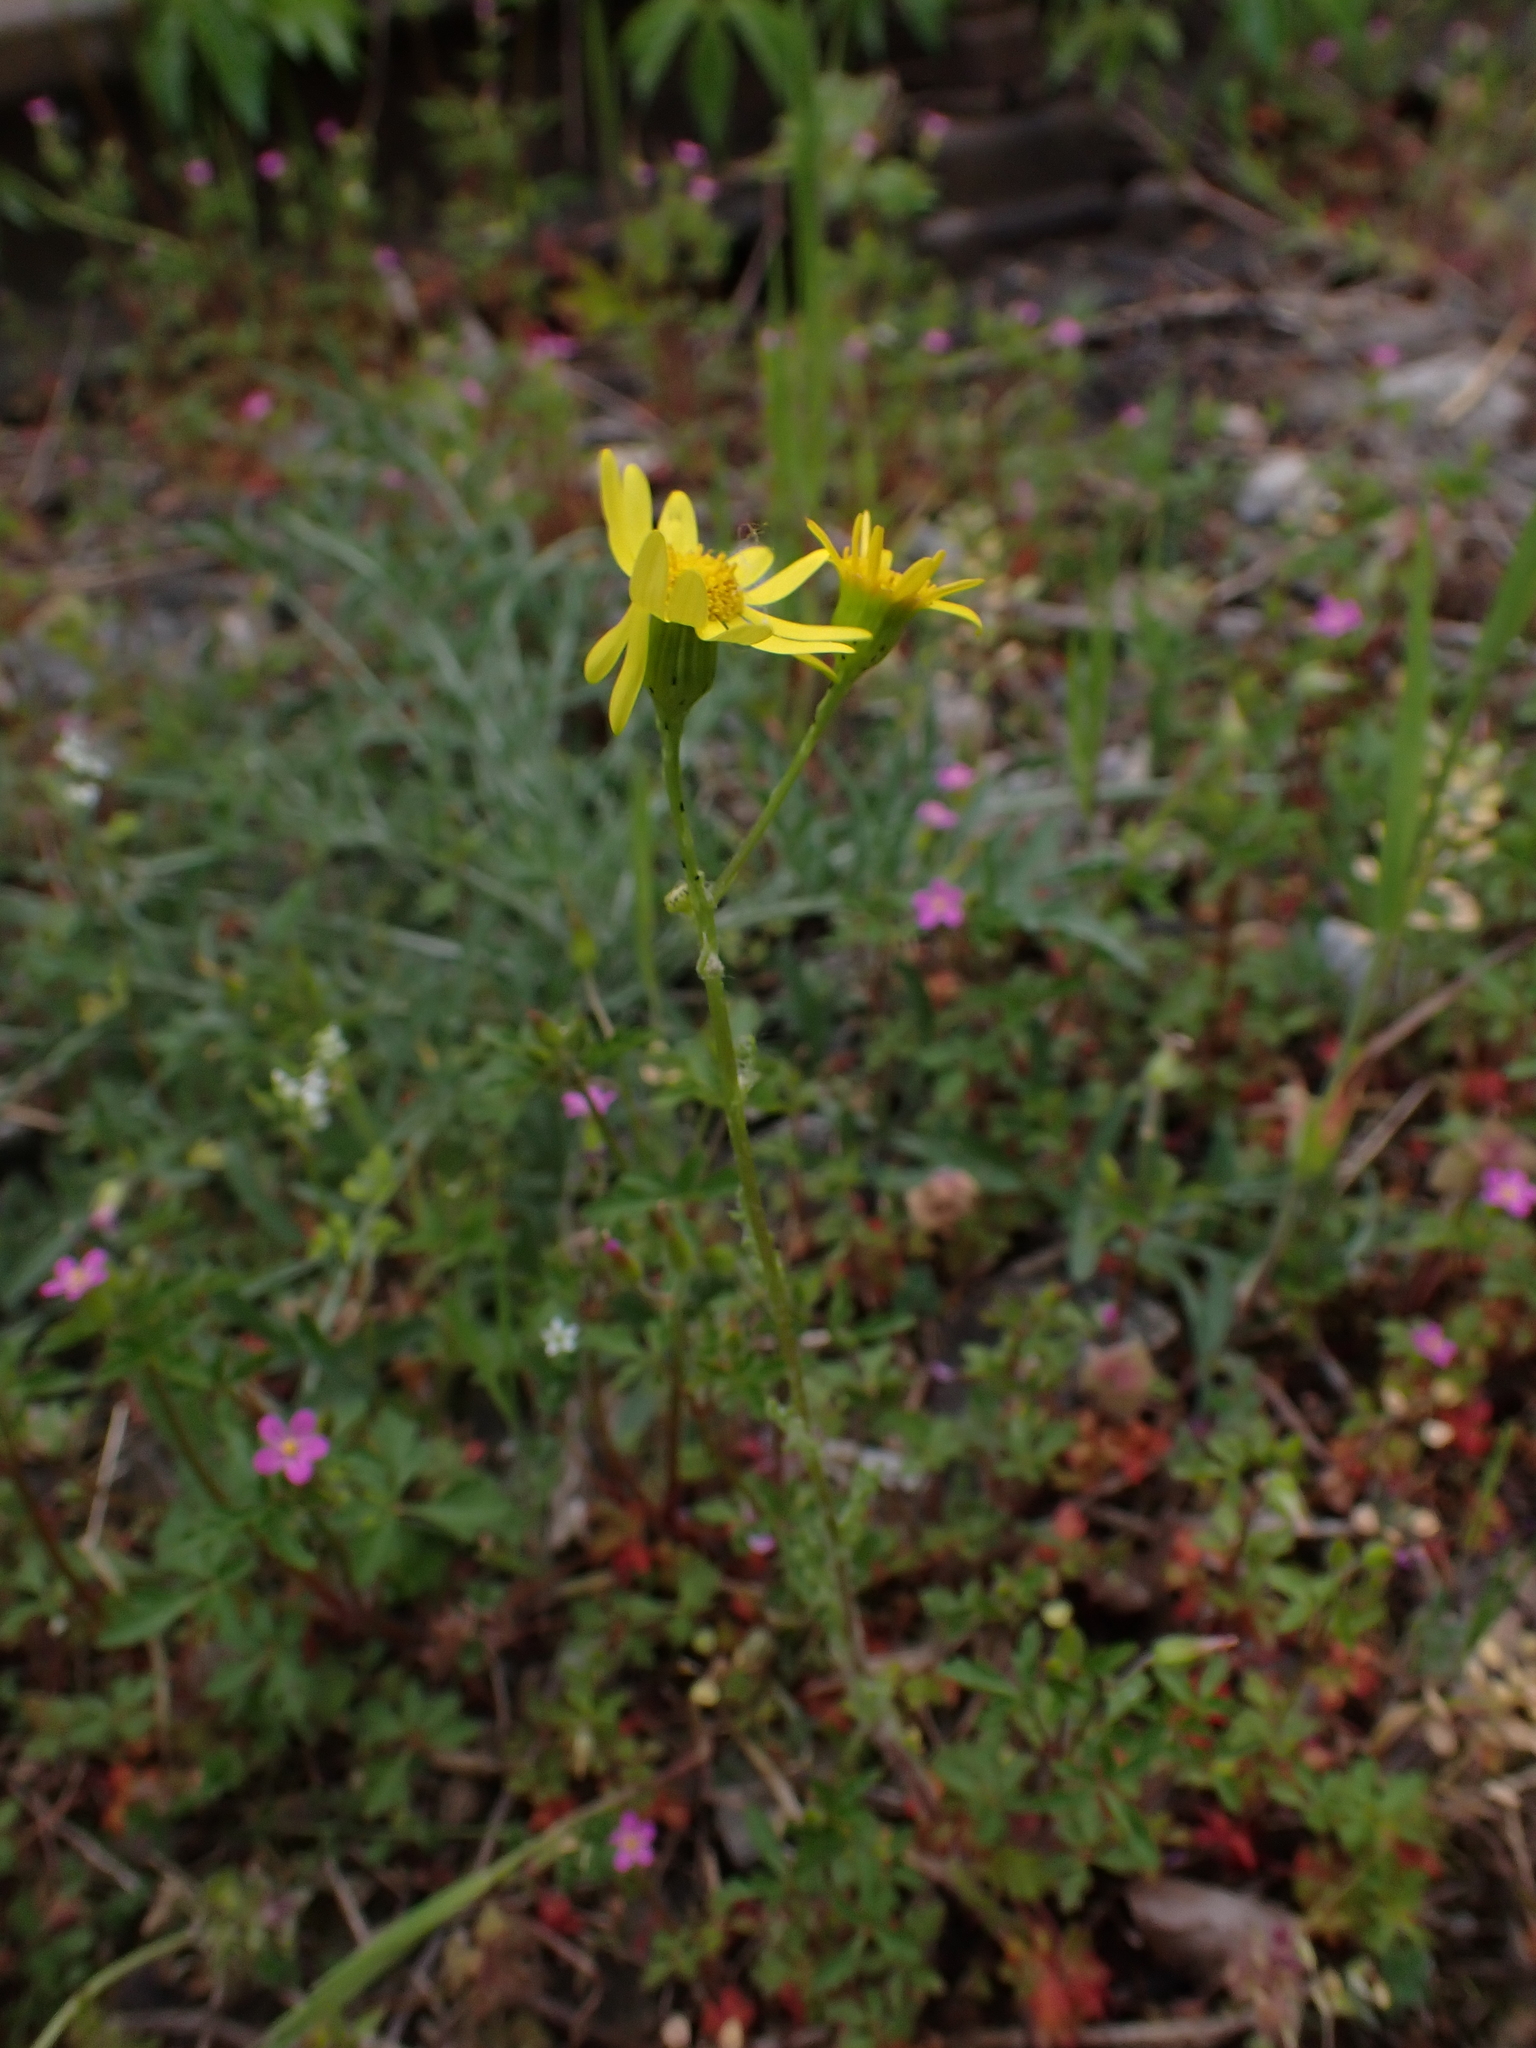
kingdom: Plantae
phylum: Tracheophyta
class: Magnoliopsida
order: Asterales
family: Asteraceae
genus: Senecio
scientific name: Senecio vernalis
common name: Eastern groundsel
